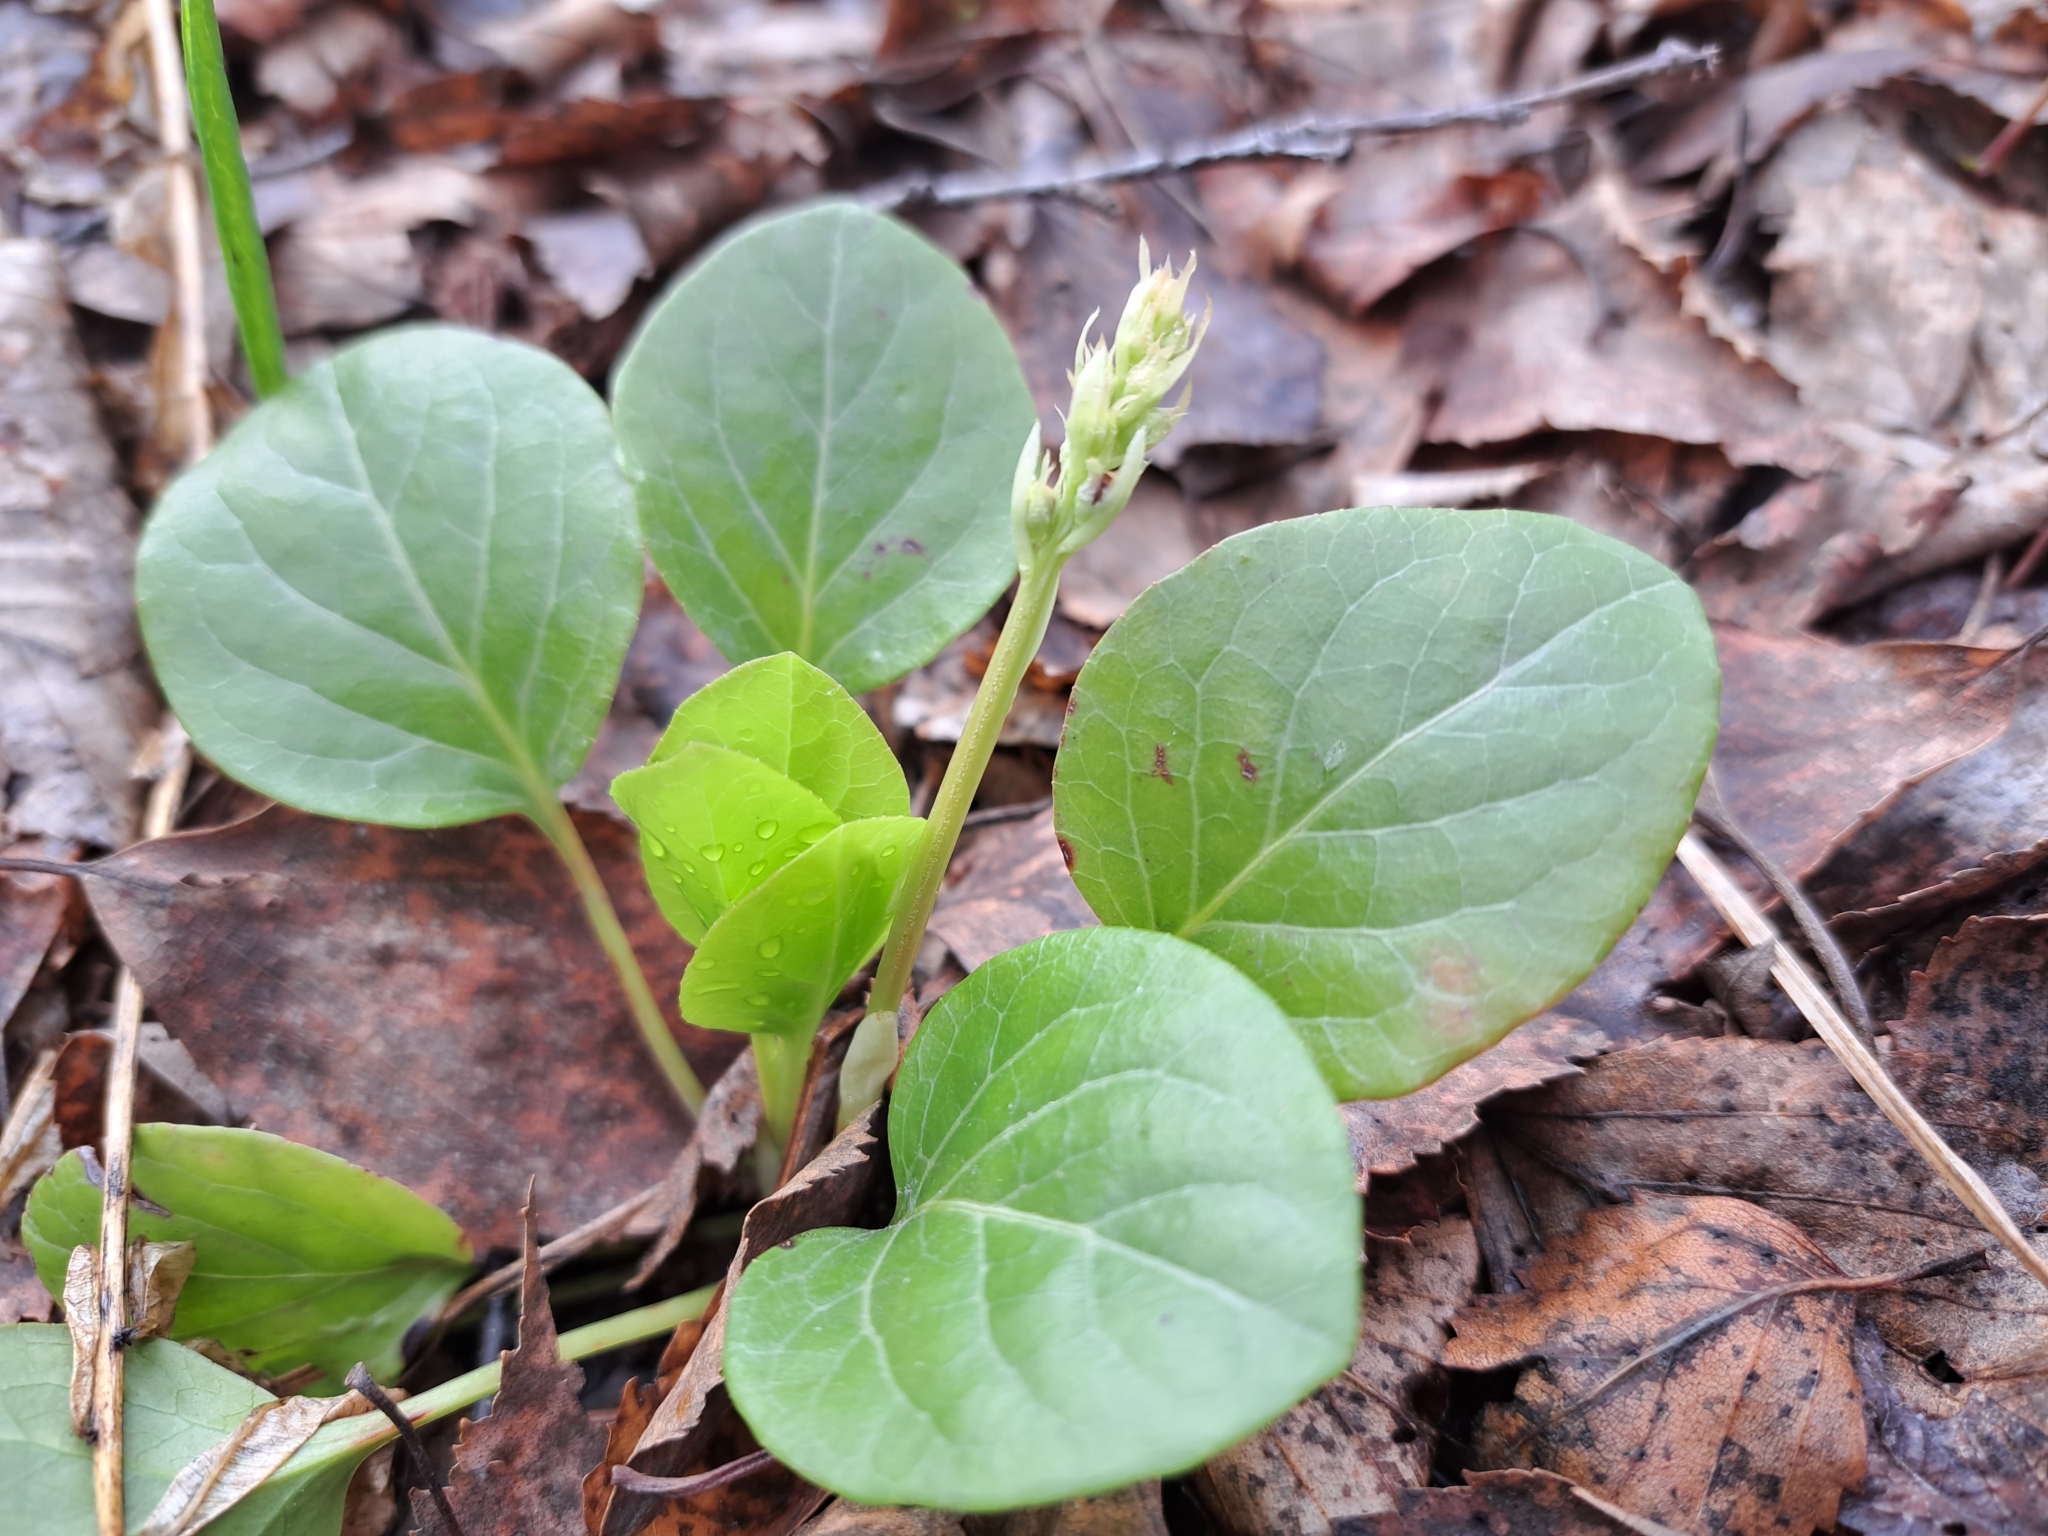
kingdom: Plantae
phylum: Tracheophyta
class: Magnoliopsida
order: Ericales
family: Ericaceae
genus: Pyrola
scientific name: Pyrola rotundifolia
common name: Round-leaved wintergreen
